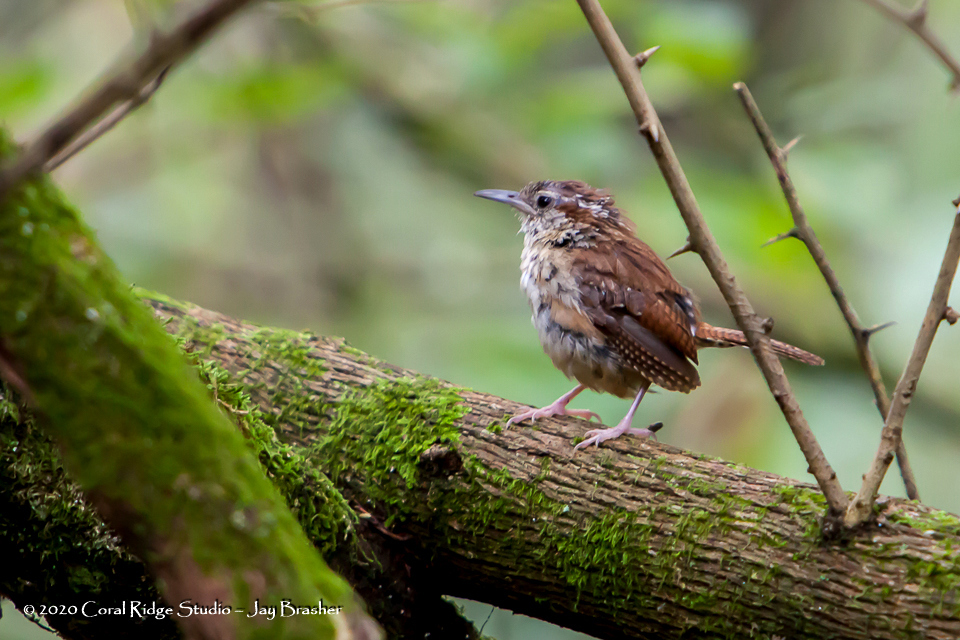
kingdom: Animalia
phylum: Chordata
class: Aves
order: Passeriformes
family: Troglodytidae
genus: Thryothorus
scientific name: Thryothorus ludovicianus
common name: Carolina wren
